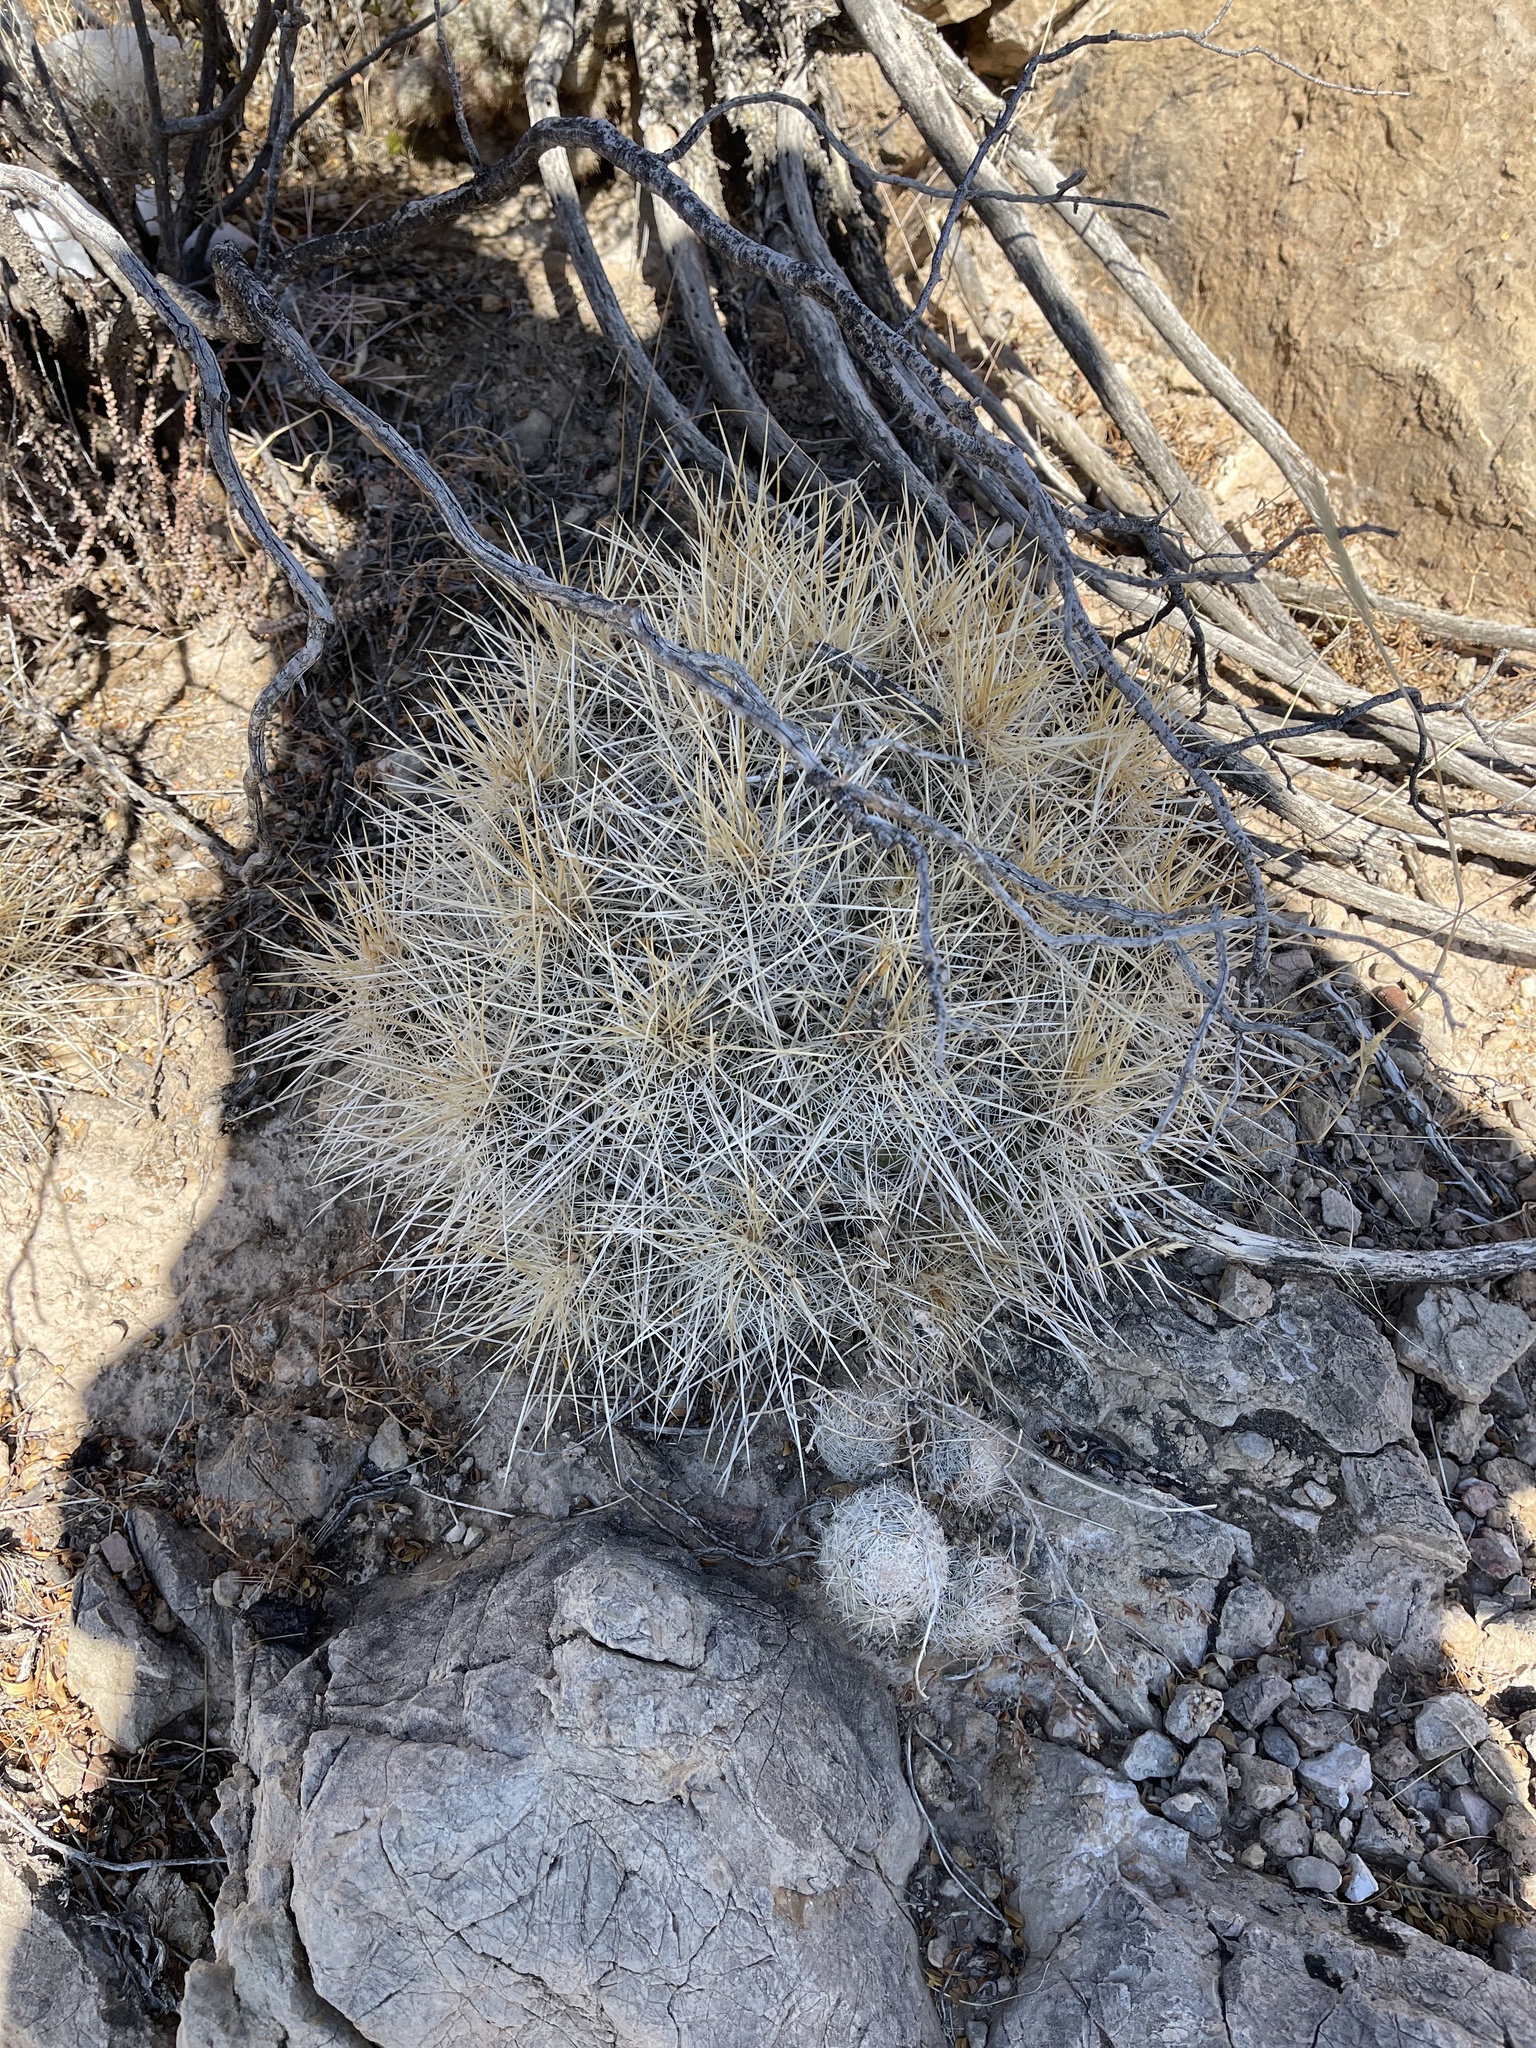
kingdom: Plantae
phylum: Tracheophyta
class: Magnoliopsida
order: Caryophyllales
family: Cactaceae
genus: Echinocereus
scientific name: Echinocereus stramineus
